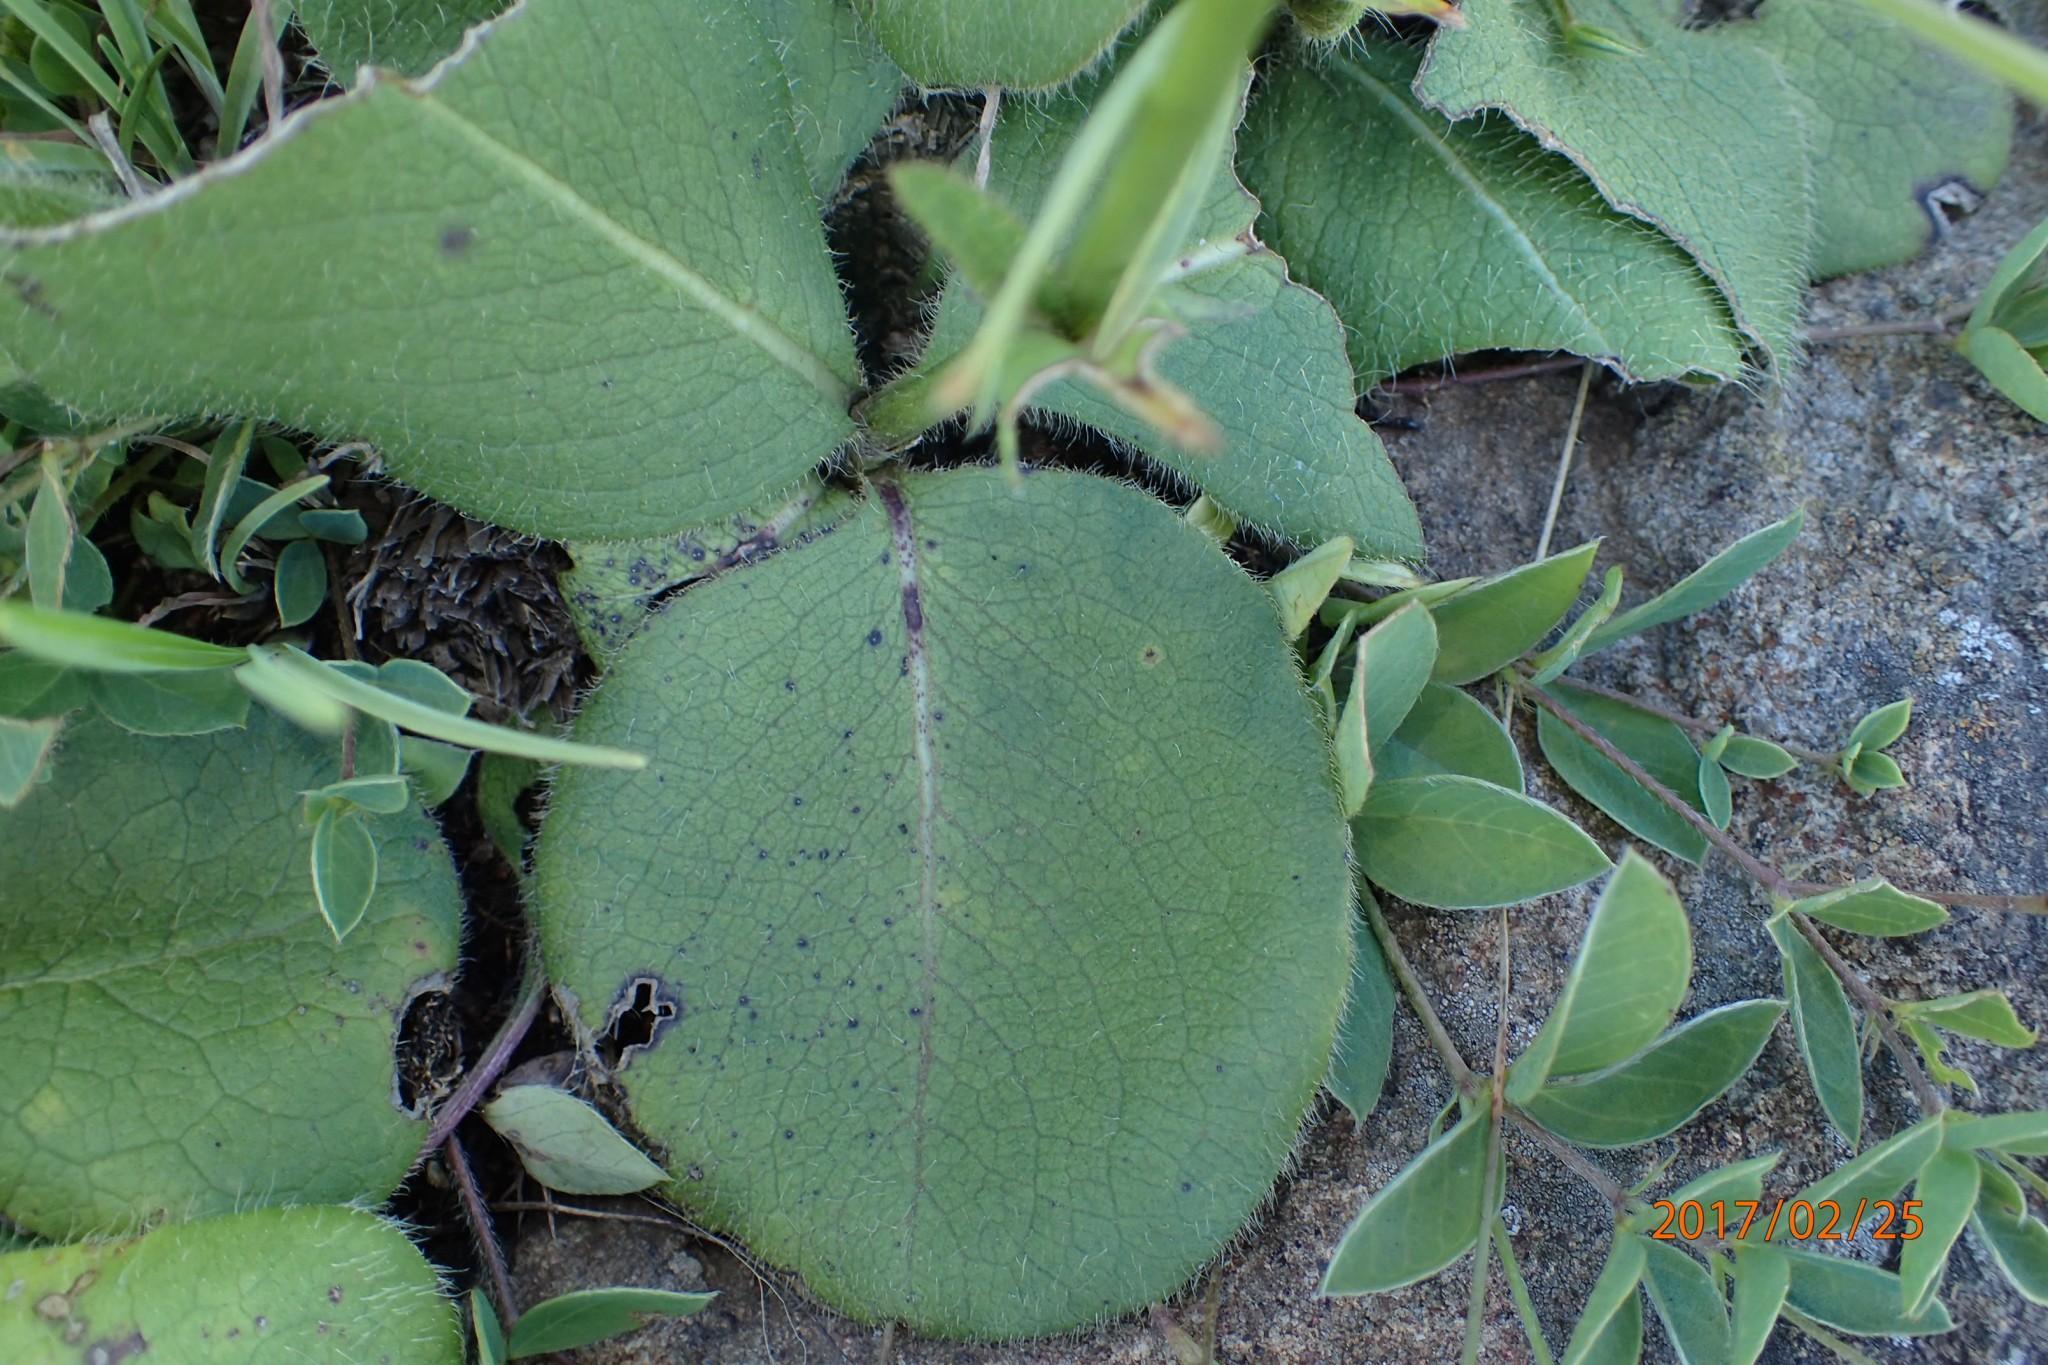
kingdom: Plantae
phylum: Tracheophyta
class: Magnoliopsida
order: Dipsacales
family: Caprifoliaceae
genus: Cephalaria
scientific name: Cephalaria oblongifolia
